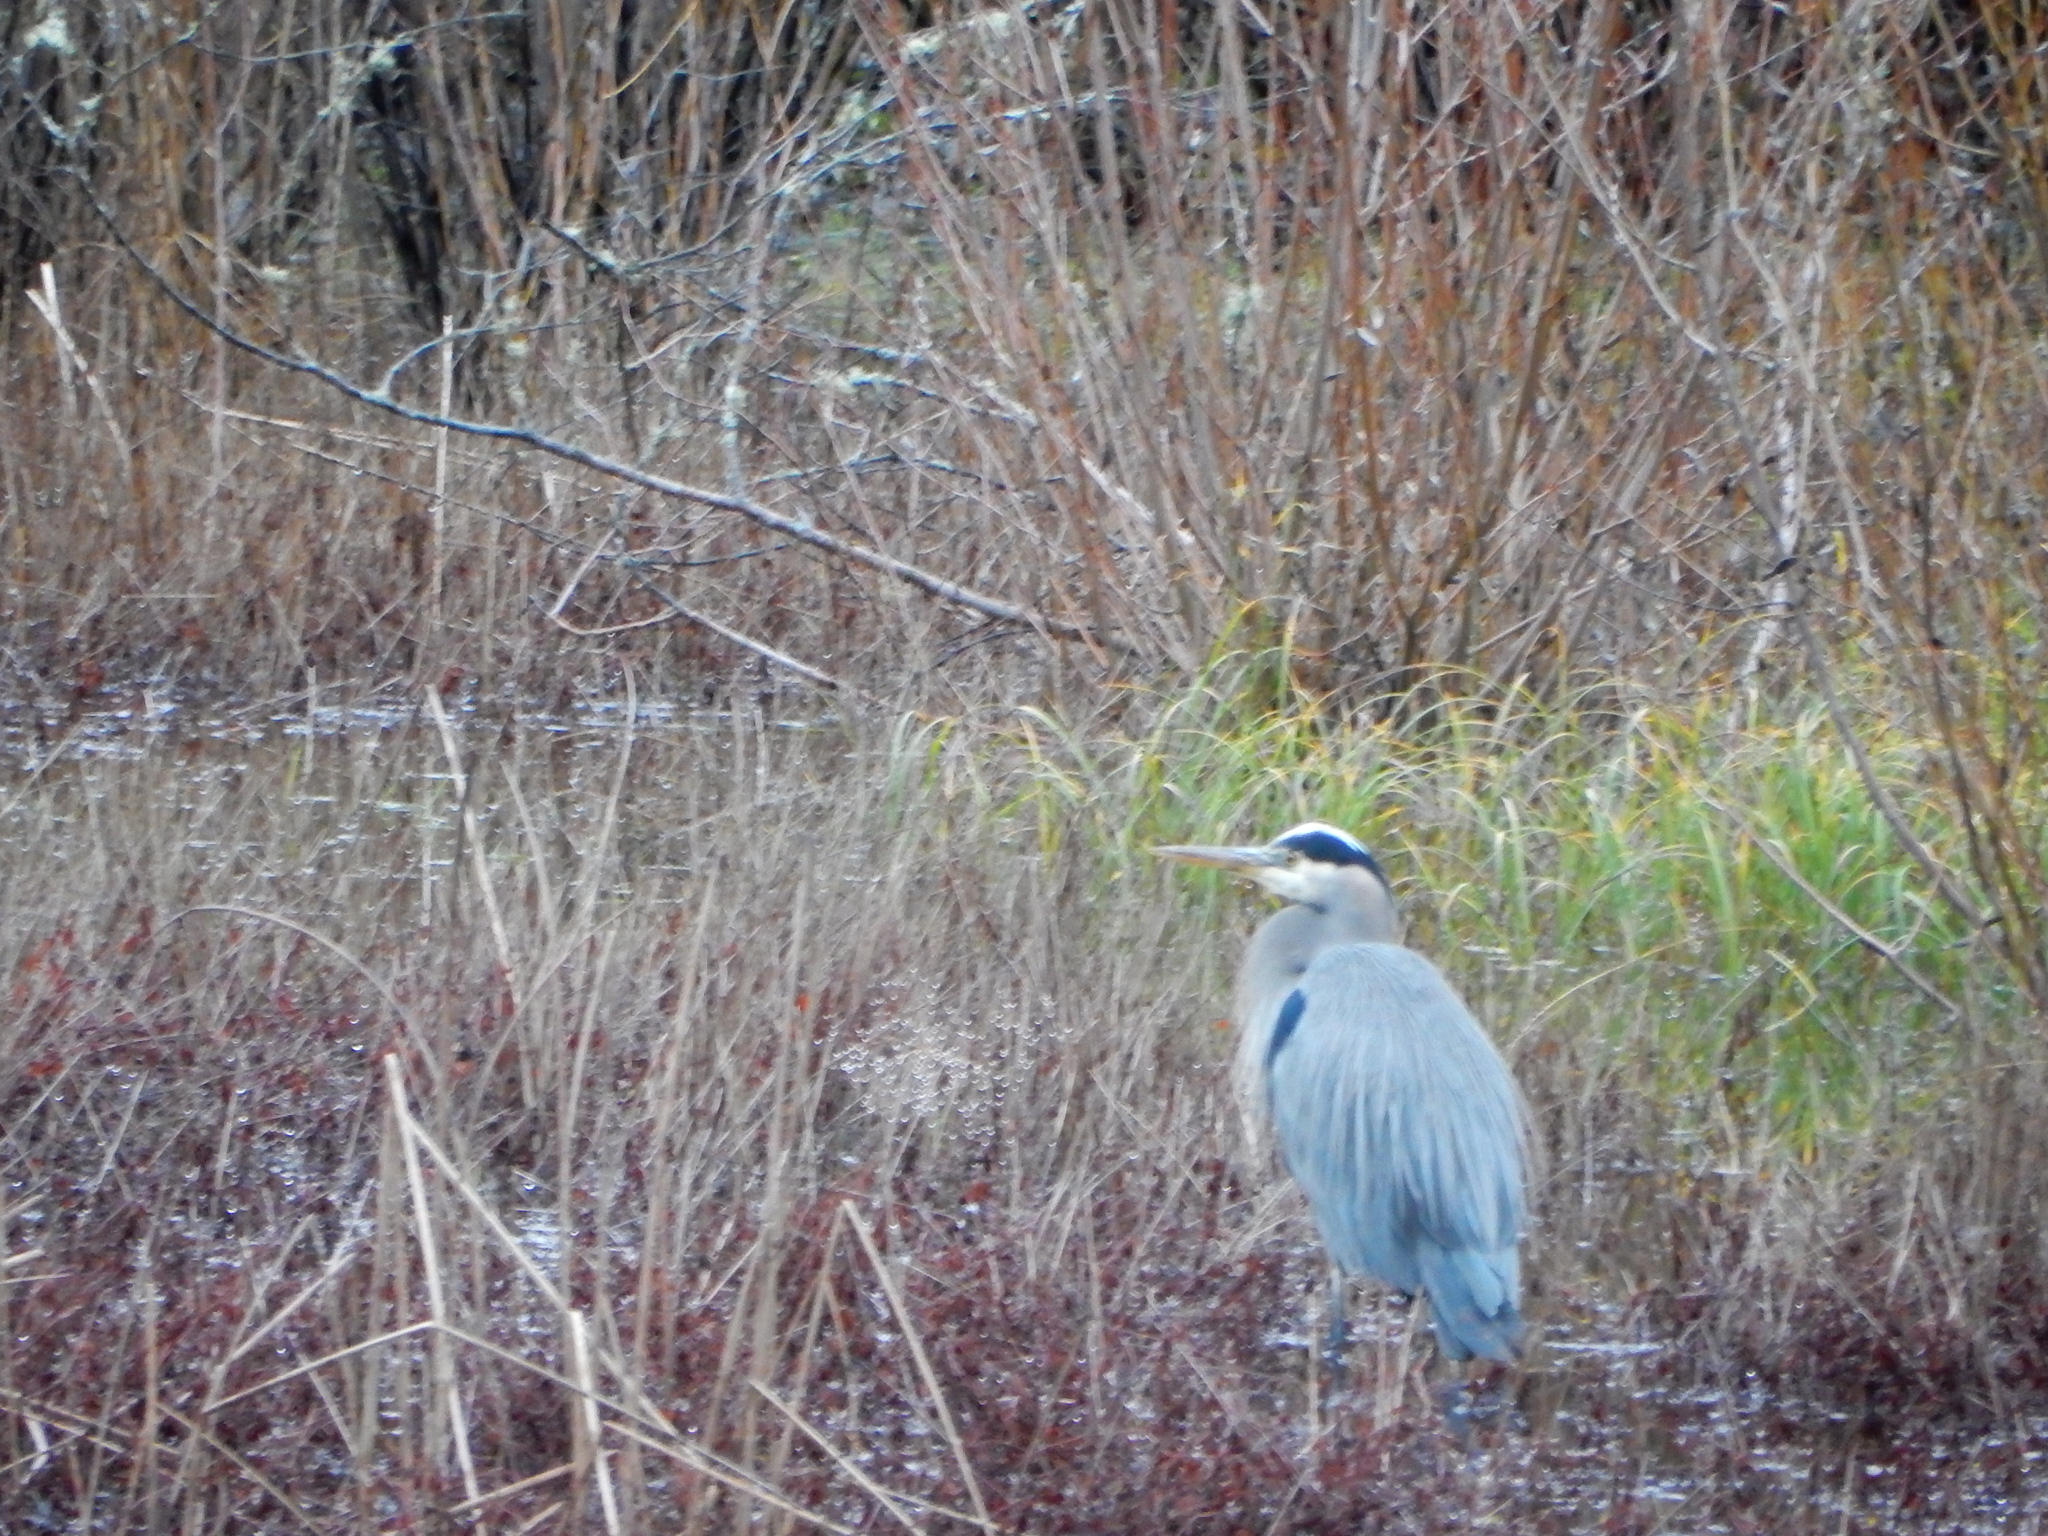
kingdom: Animalia
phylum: Chordata
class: Aves
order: Pelecaniformes
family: Ardeidae
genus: Ardea
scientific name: Ardea herodias
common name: Great blue heron
